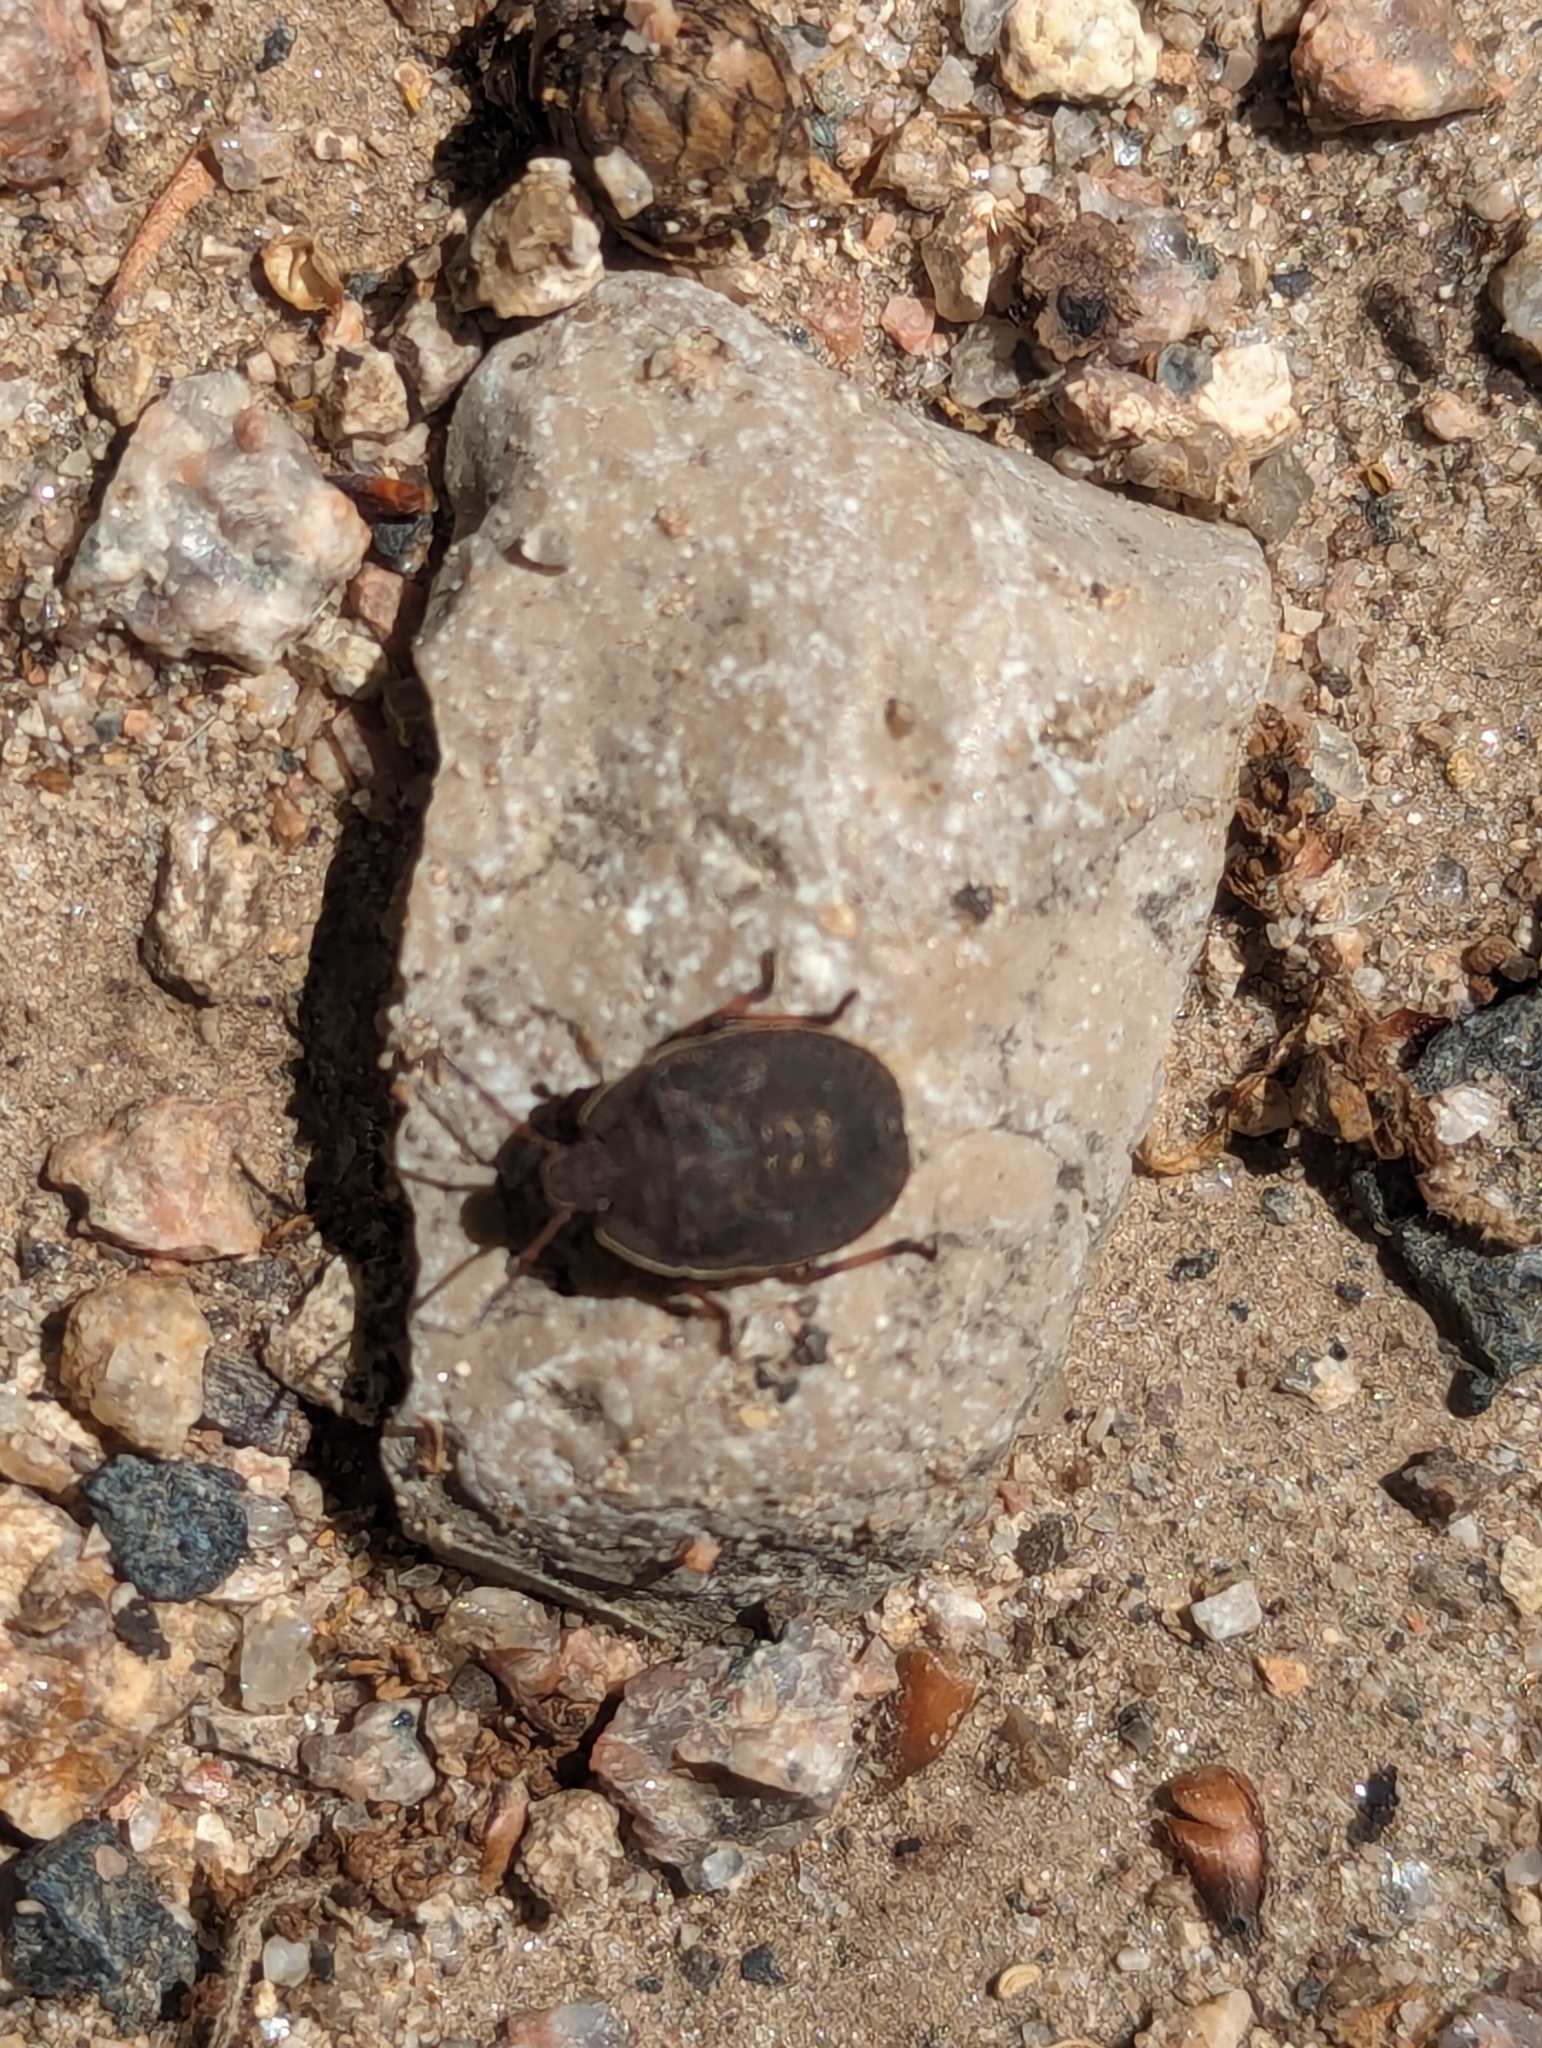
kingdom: Animalia
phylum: Arthropoda
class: Insecta
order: Hemiptera
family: Pentatomidae
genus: Menecles
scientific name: Menecles insertus
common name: Elf shoe stink bug
